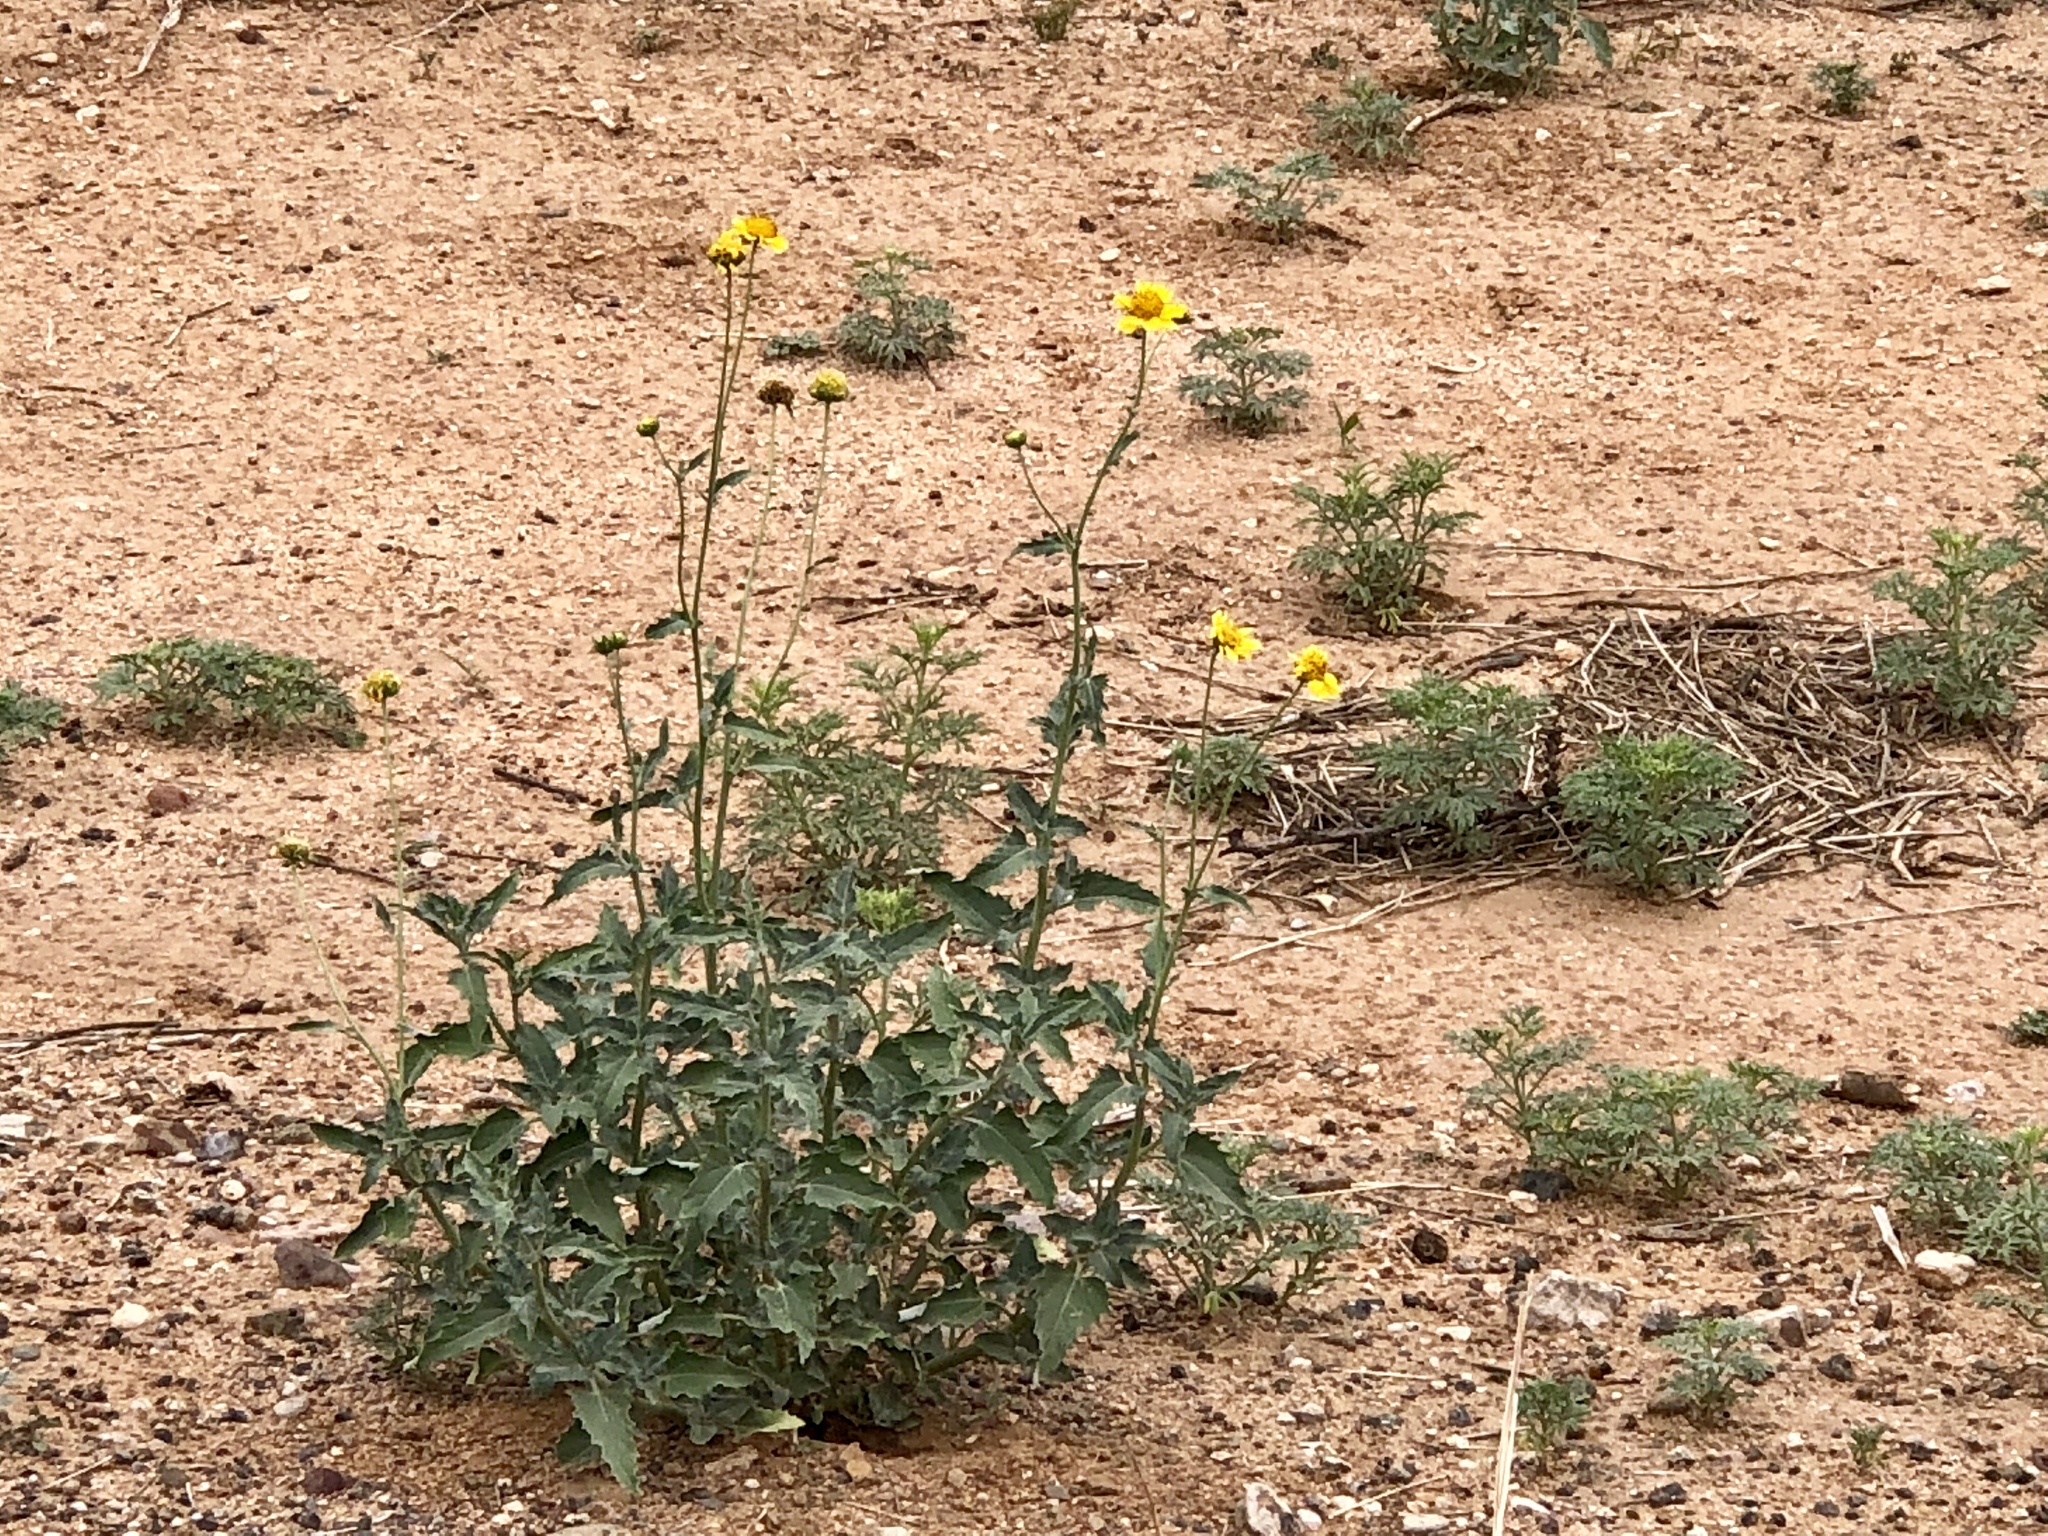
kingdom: Plantae
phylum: Tracheophyta
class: Magnoliopsida
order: Asterales
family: Asteraceae
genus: Verbesina
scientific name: Verbesina encelioides
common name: Golden crownbeard
